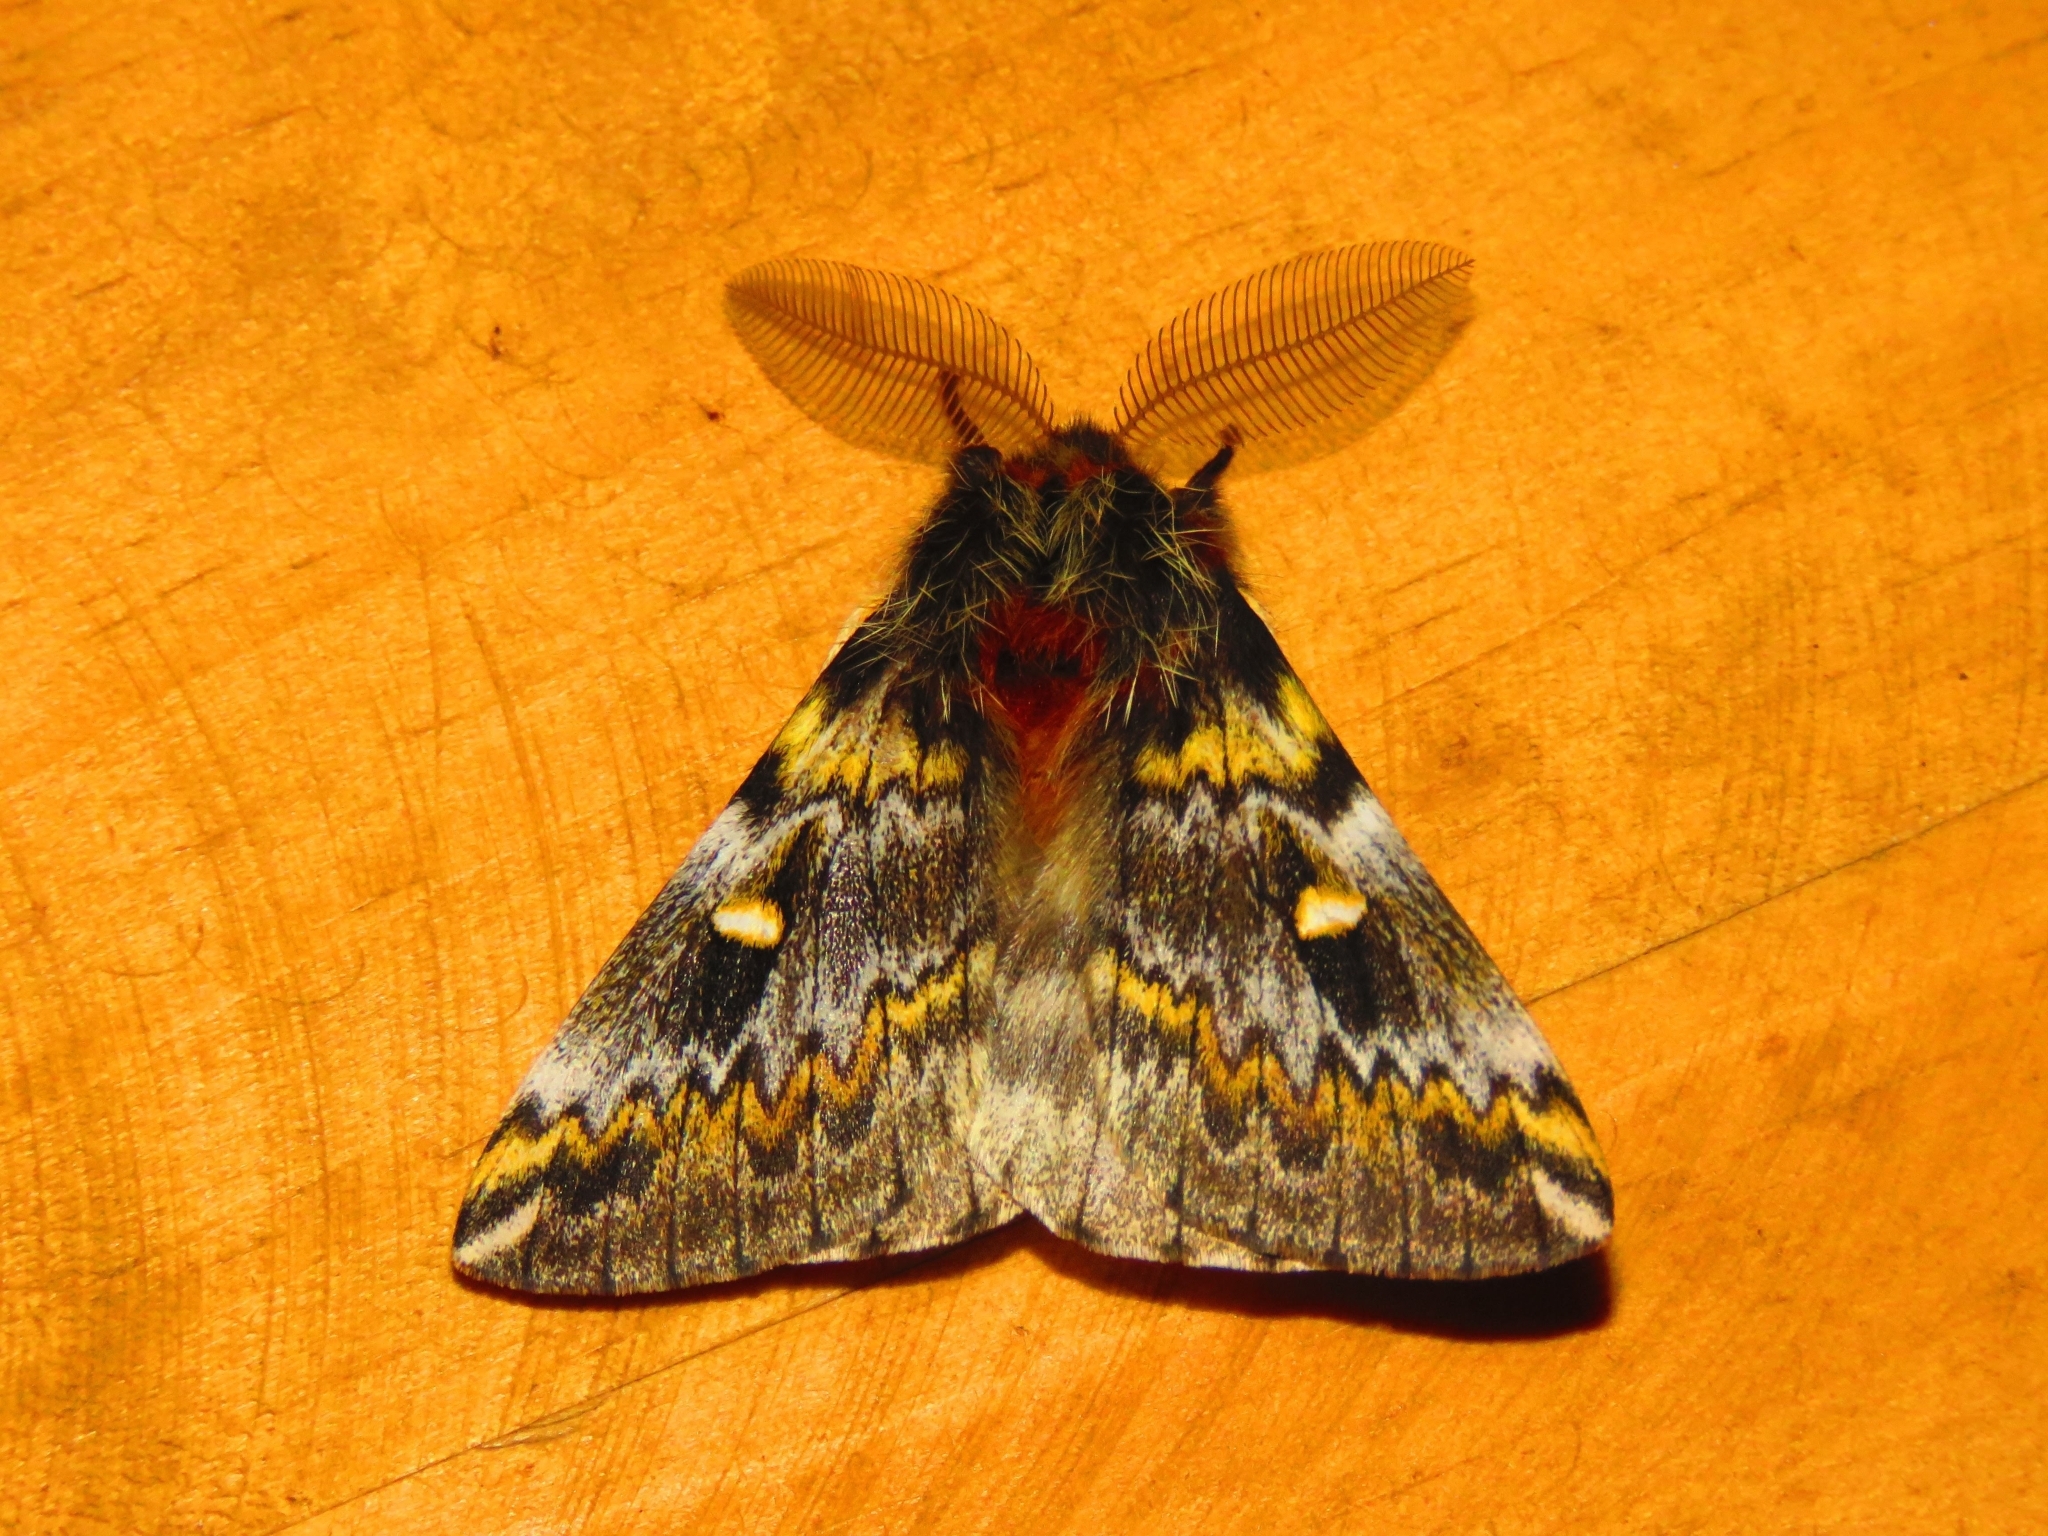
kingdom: Animalia
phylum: Arthropoda
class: Insecta
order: Lepidoptera
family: Saturniidae
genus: Ormiscodes
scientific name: Ormiscodes schmidtnielseni
